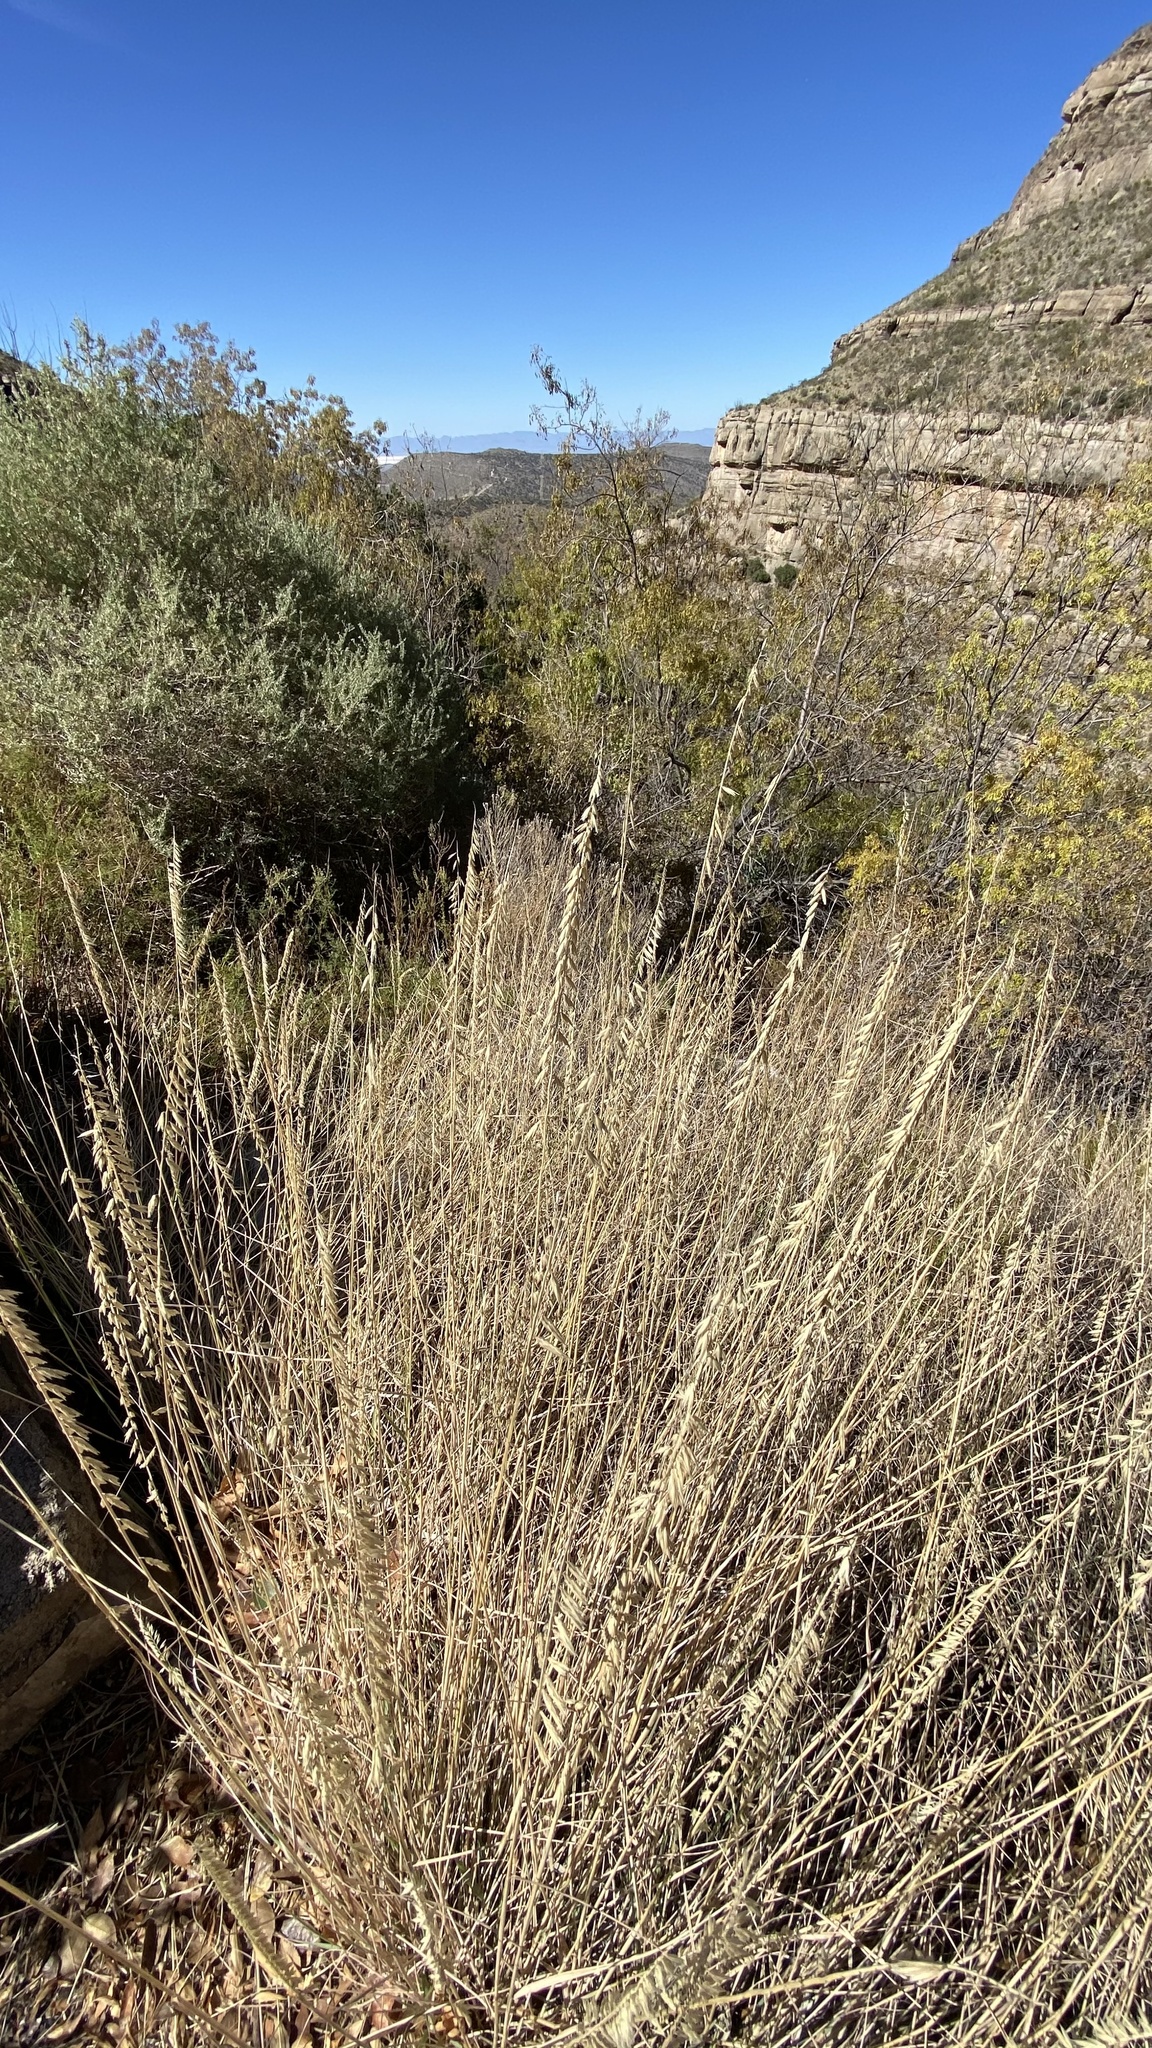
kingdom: Plantae
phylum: Tracheophyta
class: Liliopsida
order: Poales
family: Poaceae
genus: Bouteloua
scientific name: Bouteloua curtipendula
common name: Side-oats grama
